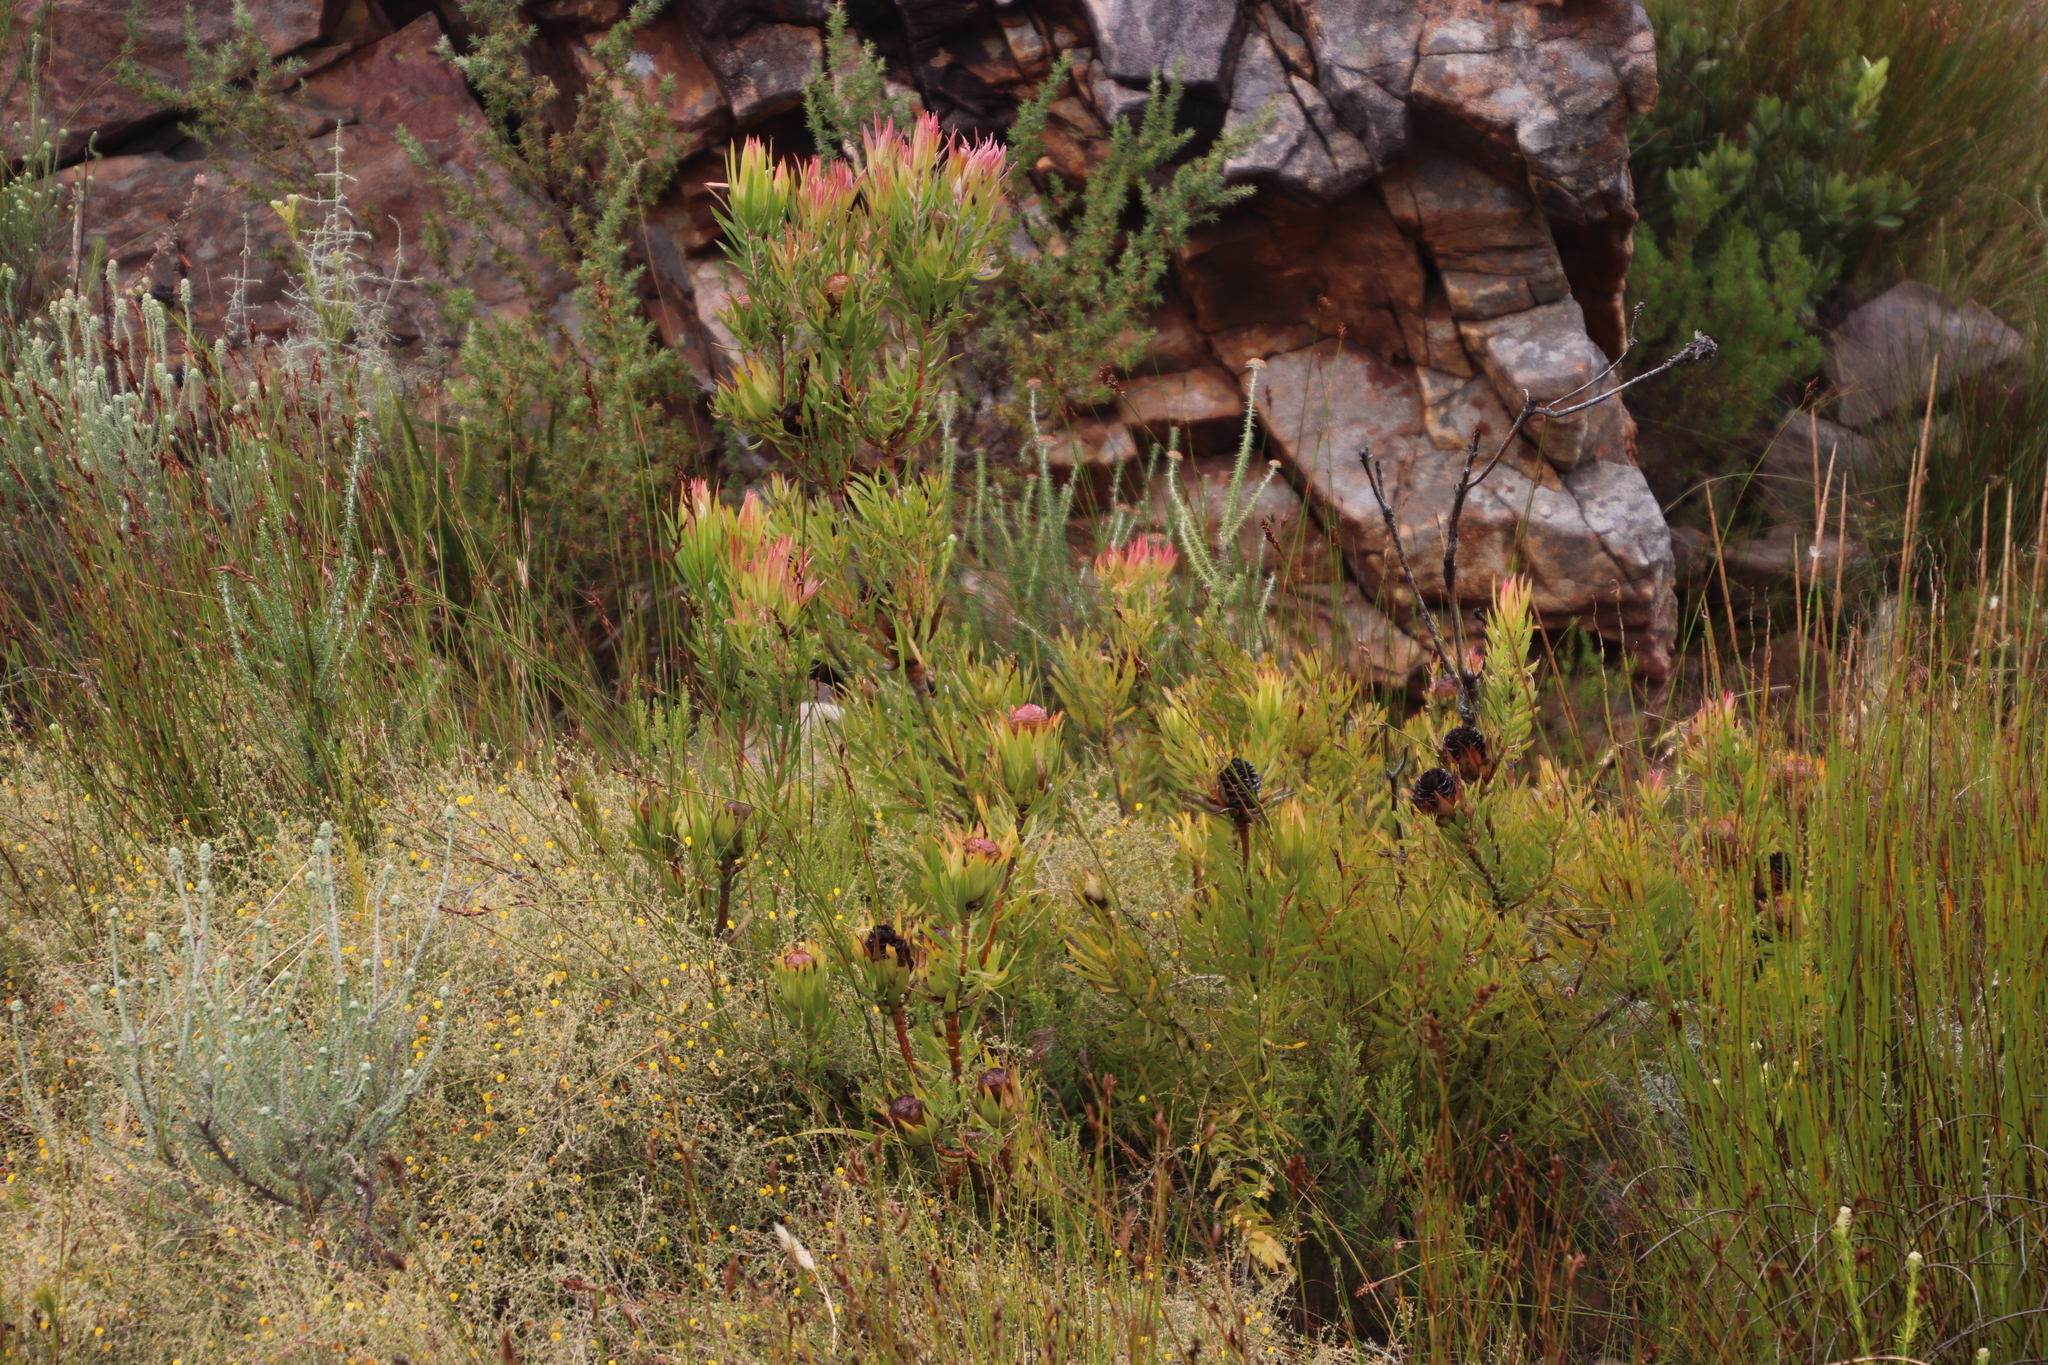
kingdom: Plantae
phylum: Tracheophyta
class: Magnoliopsida
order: Proteales
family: Proteaceae
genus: Leucadendron
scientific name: Leucadendron spissifolium
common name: Spear-leaf conebush
